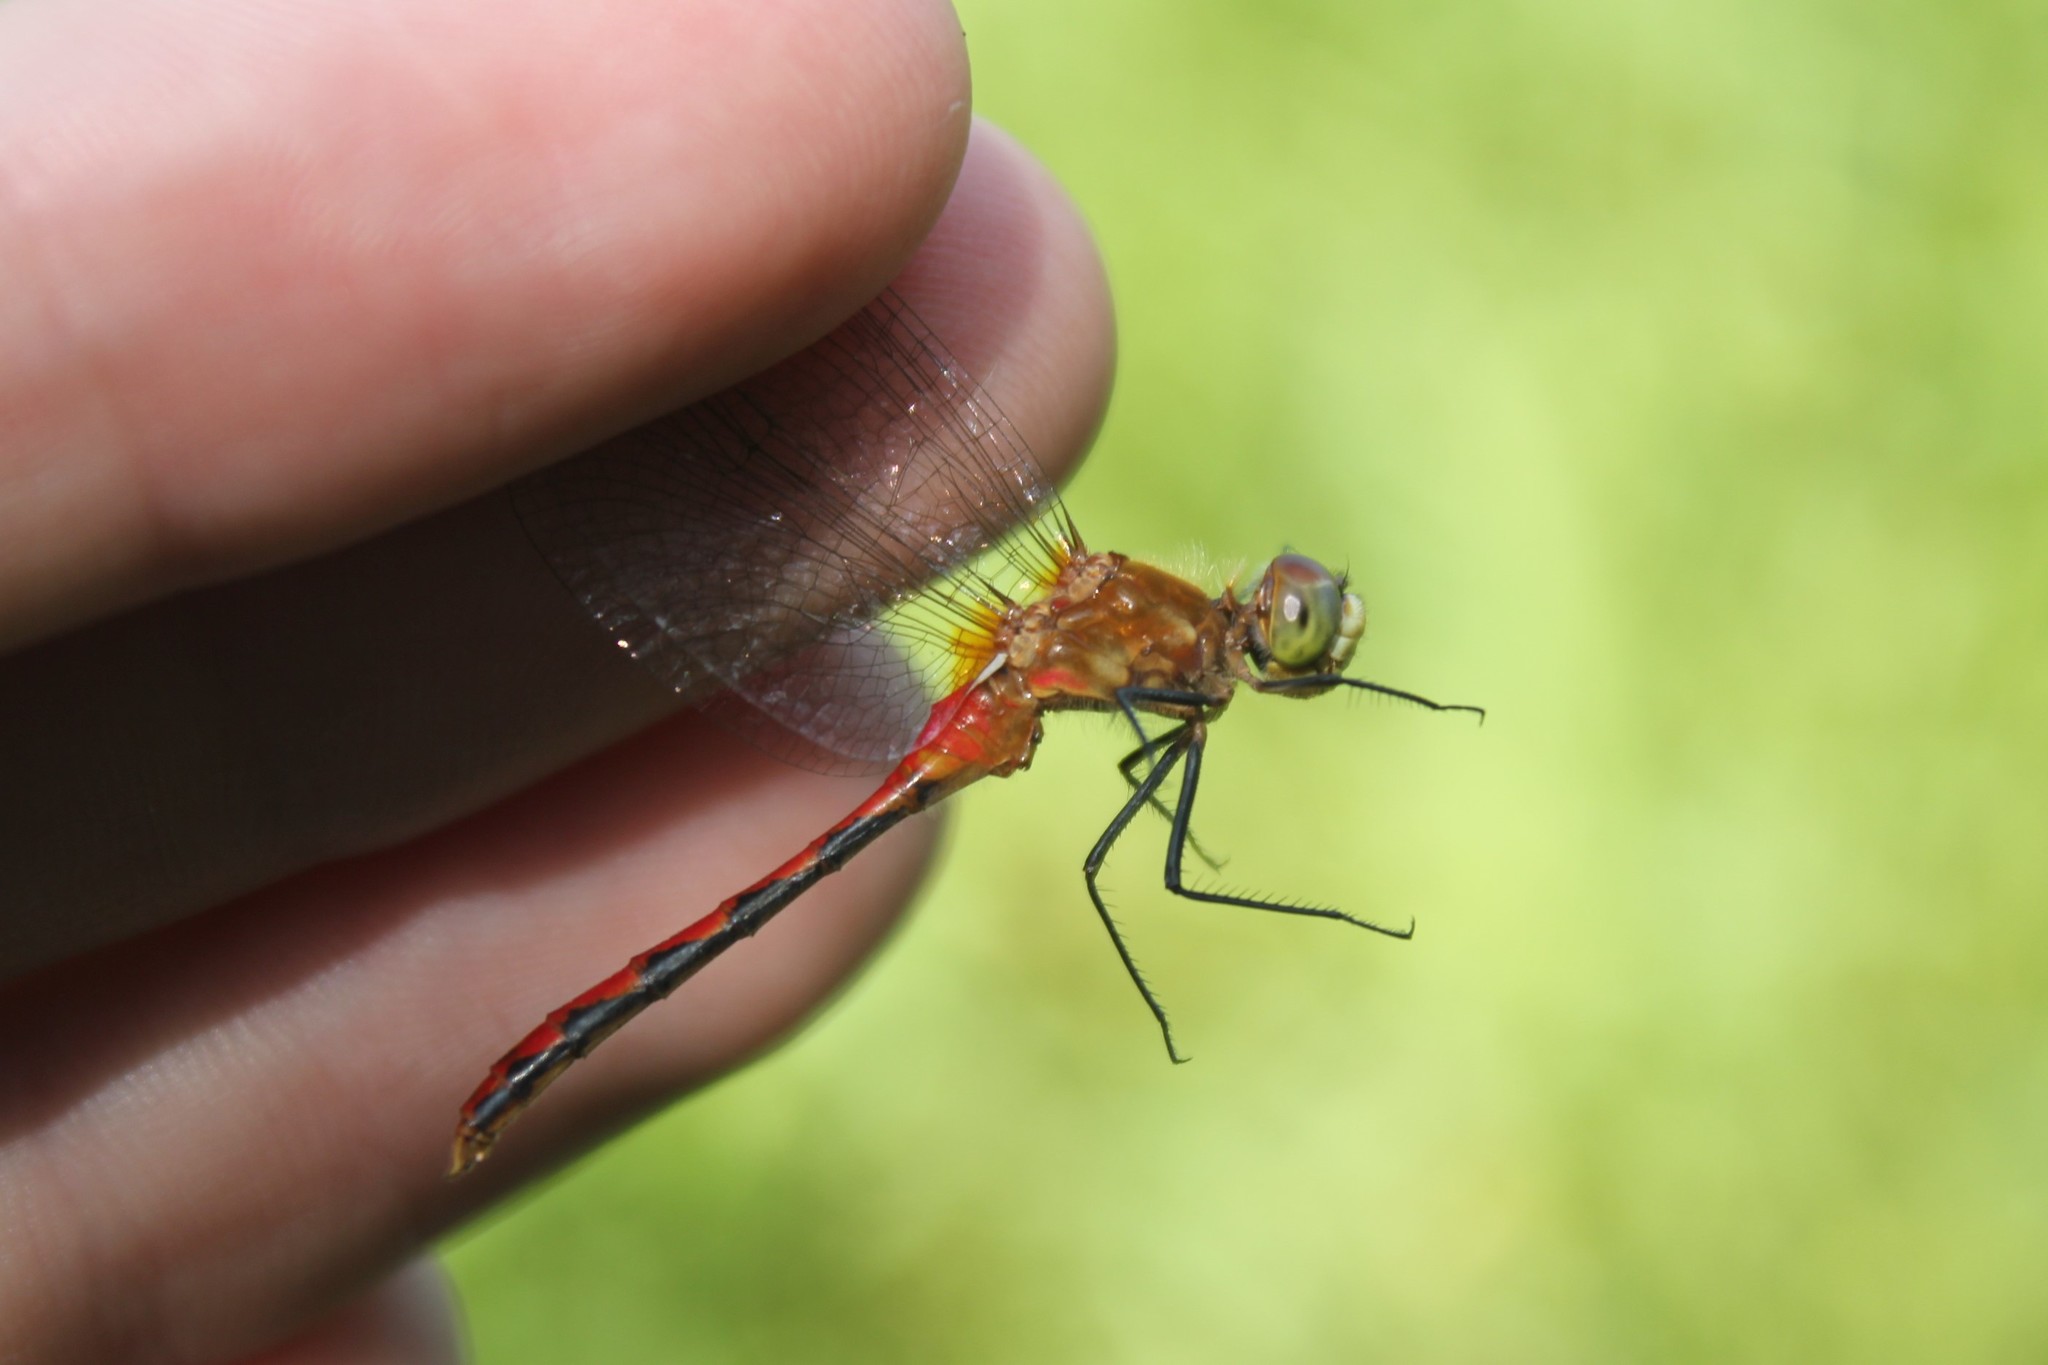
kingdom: Animalia
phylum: Arthropoda
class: Insecta
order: Odonata
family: Libellulidae
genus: Sympetrum
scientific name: Sympetrum obtrusum
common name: White-faced meadowhawk
